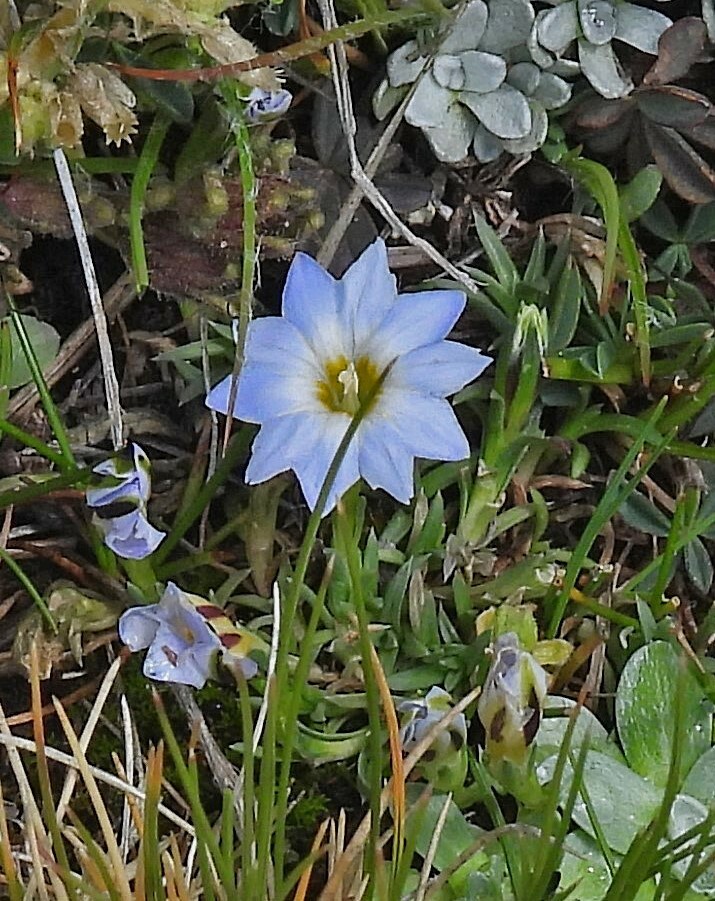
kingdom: Plantae
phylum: Tracheophyta
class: Magnoliopsida
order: Gentianales
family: Gentianaceae
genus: Gentiana
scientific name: Gentiana sedifolia
